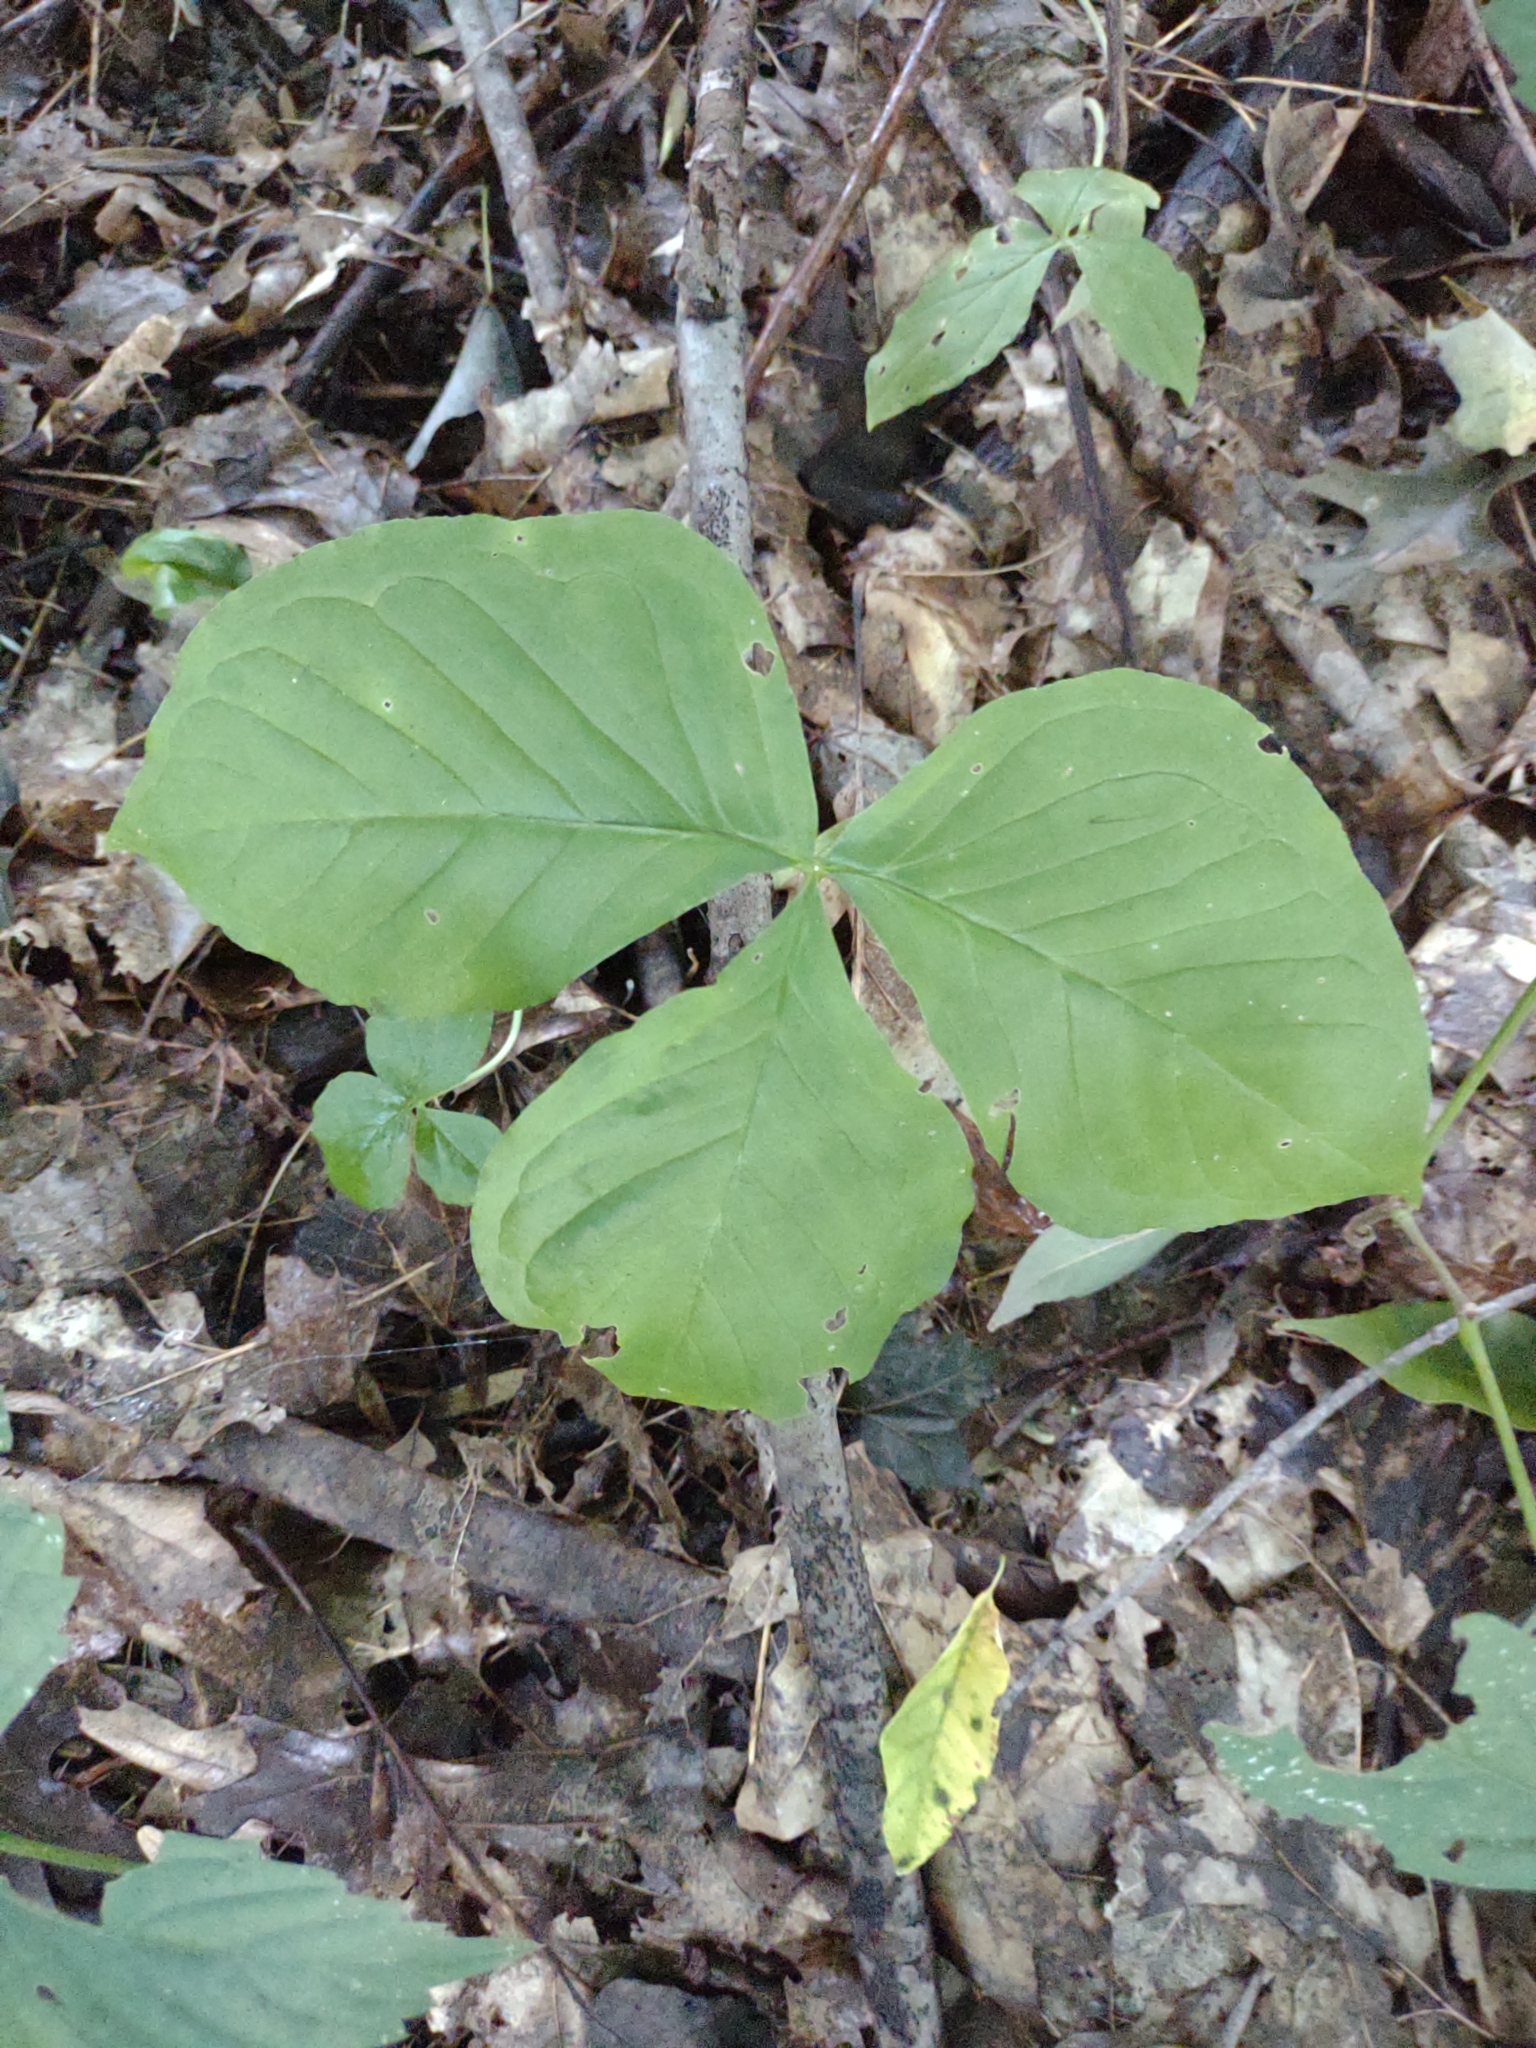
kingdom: Plantae
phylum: Tracheophyta
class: Liliopsida
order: Alismatales
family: Araceae
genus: Arisaema
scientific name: Arisaema triphyllum
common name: Jack-in-the-pulpit
